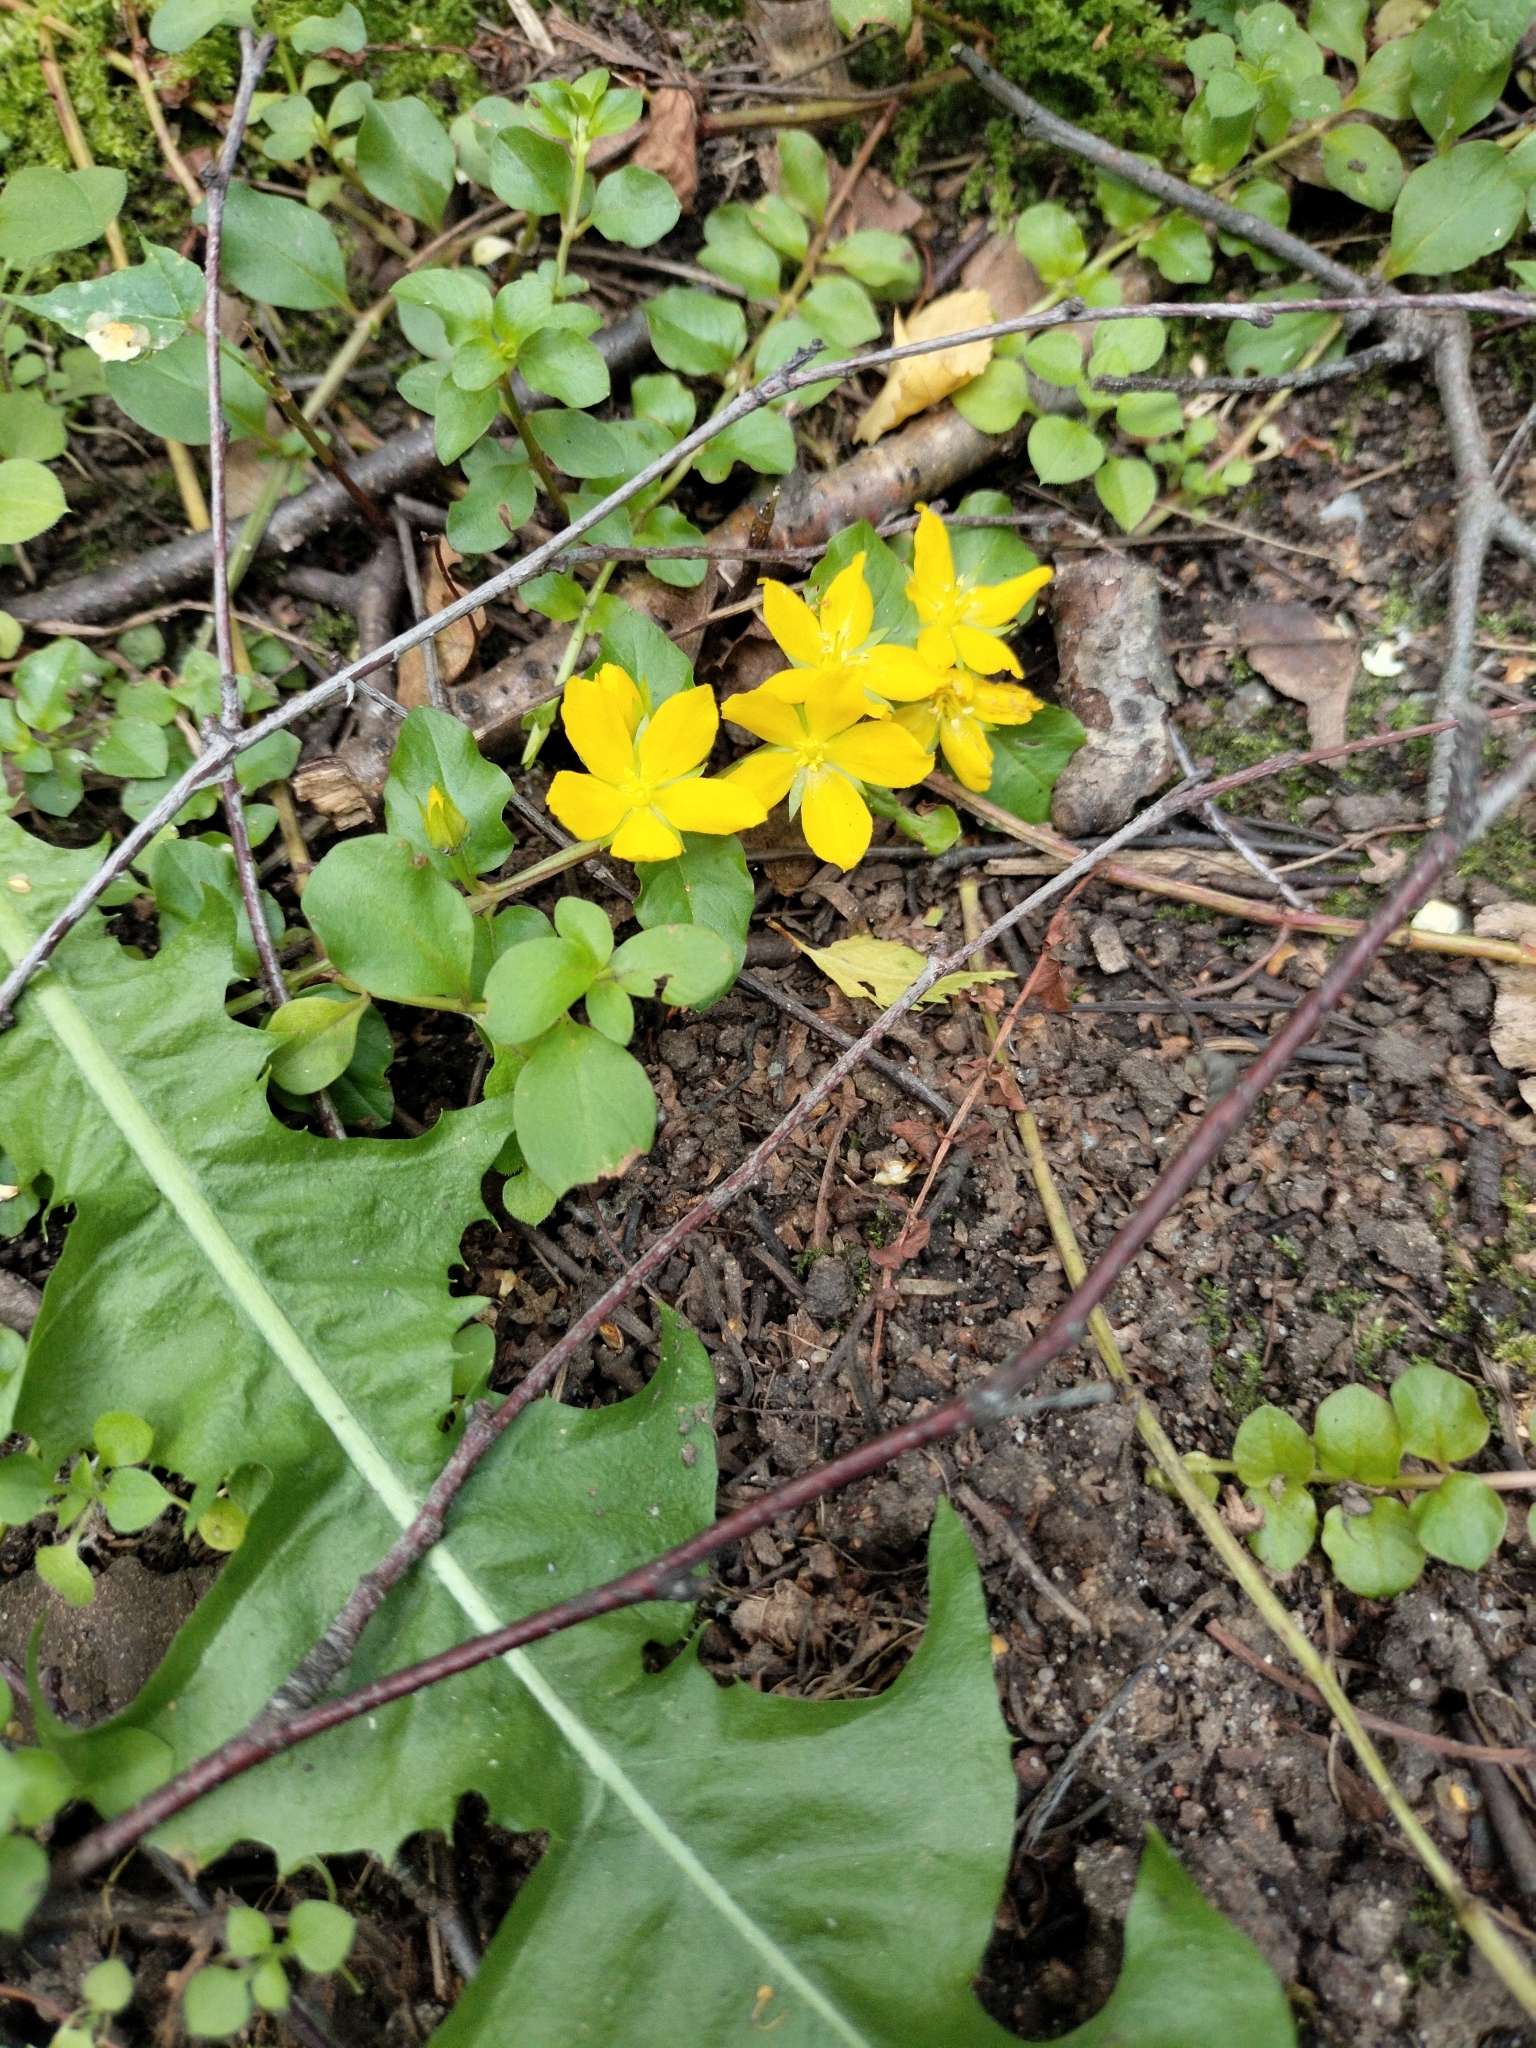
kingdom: Plantae
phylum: Tracheophyta
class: Magnoliopsida
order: Ericales
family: Primulaceae
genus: Lysimachia
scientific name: Lysimachia nummularia
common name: Moneywort
